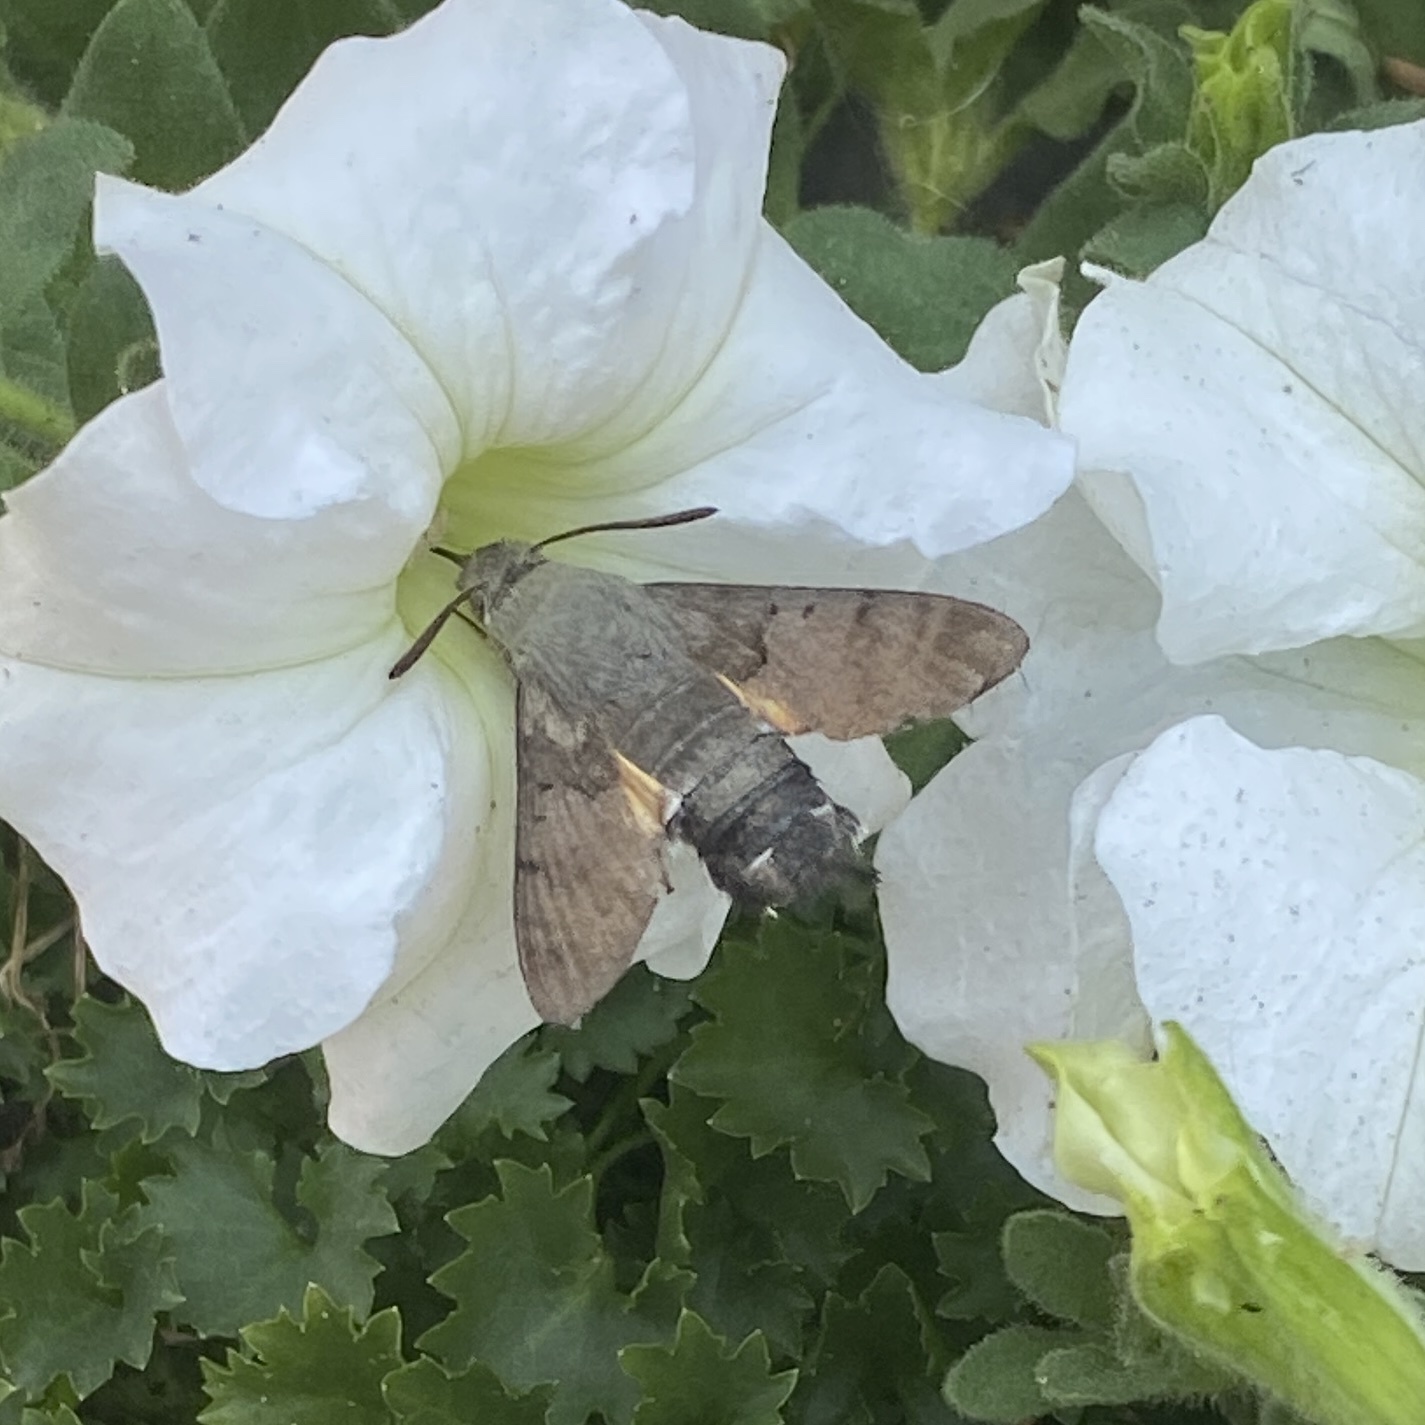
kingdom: Animalia
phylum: Arthropoda
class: Insecta
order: Lepidoptera
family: Sphingidae
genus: Macroglossum
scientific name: Macroglossum stellatarum
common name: Humming-bird hawk-moth
